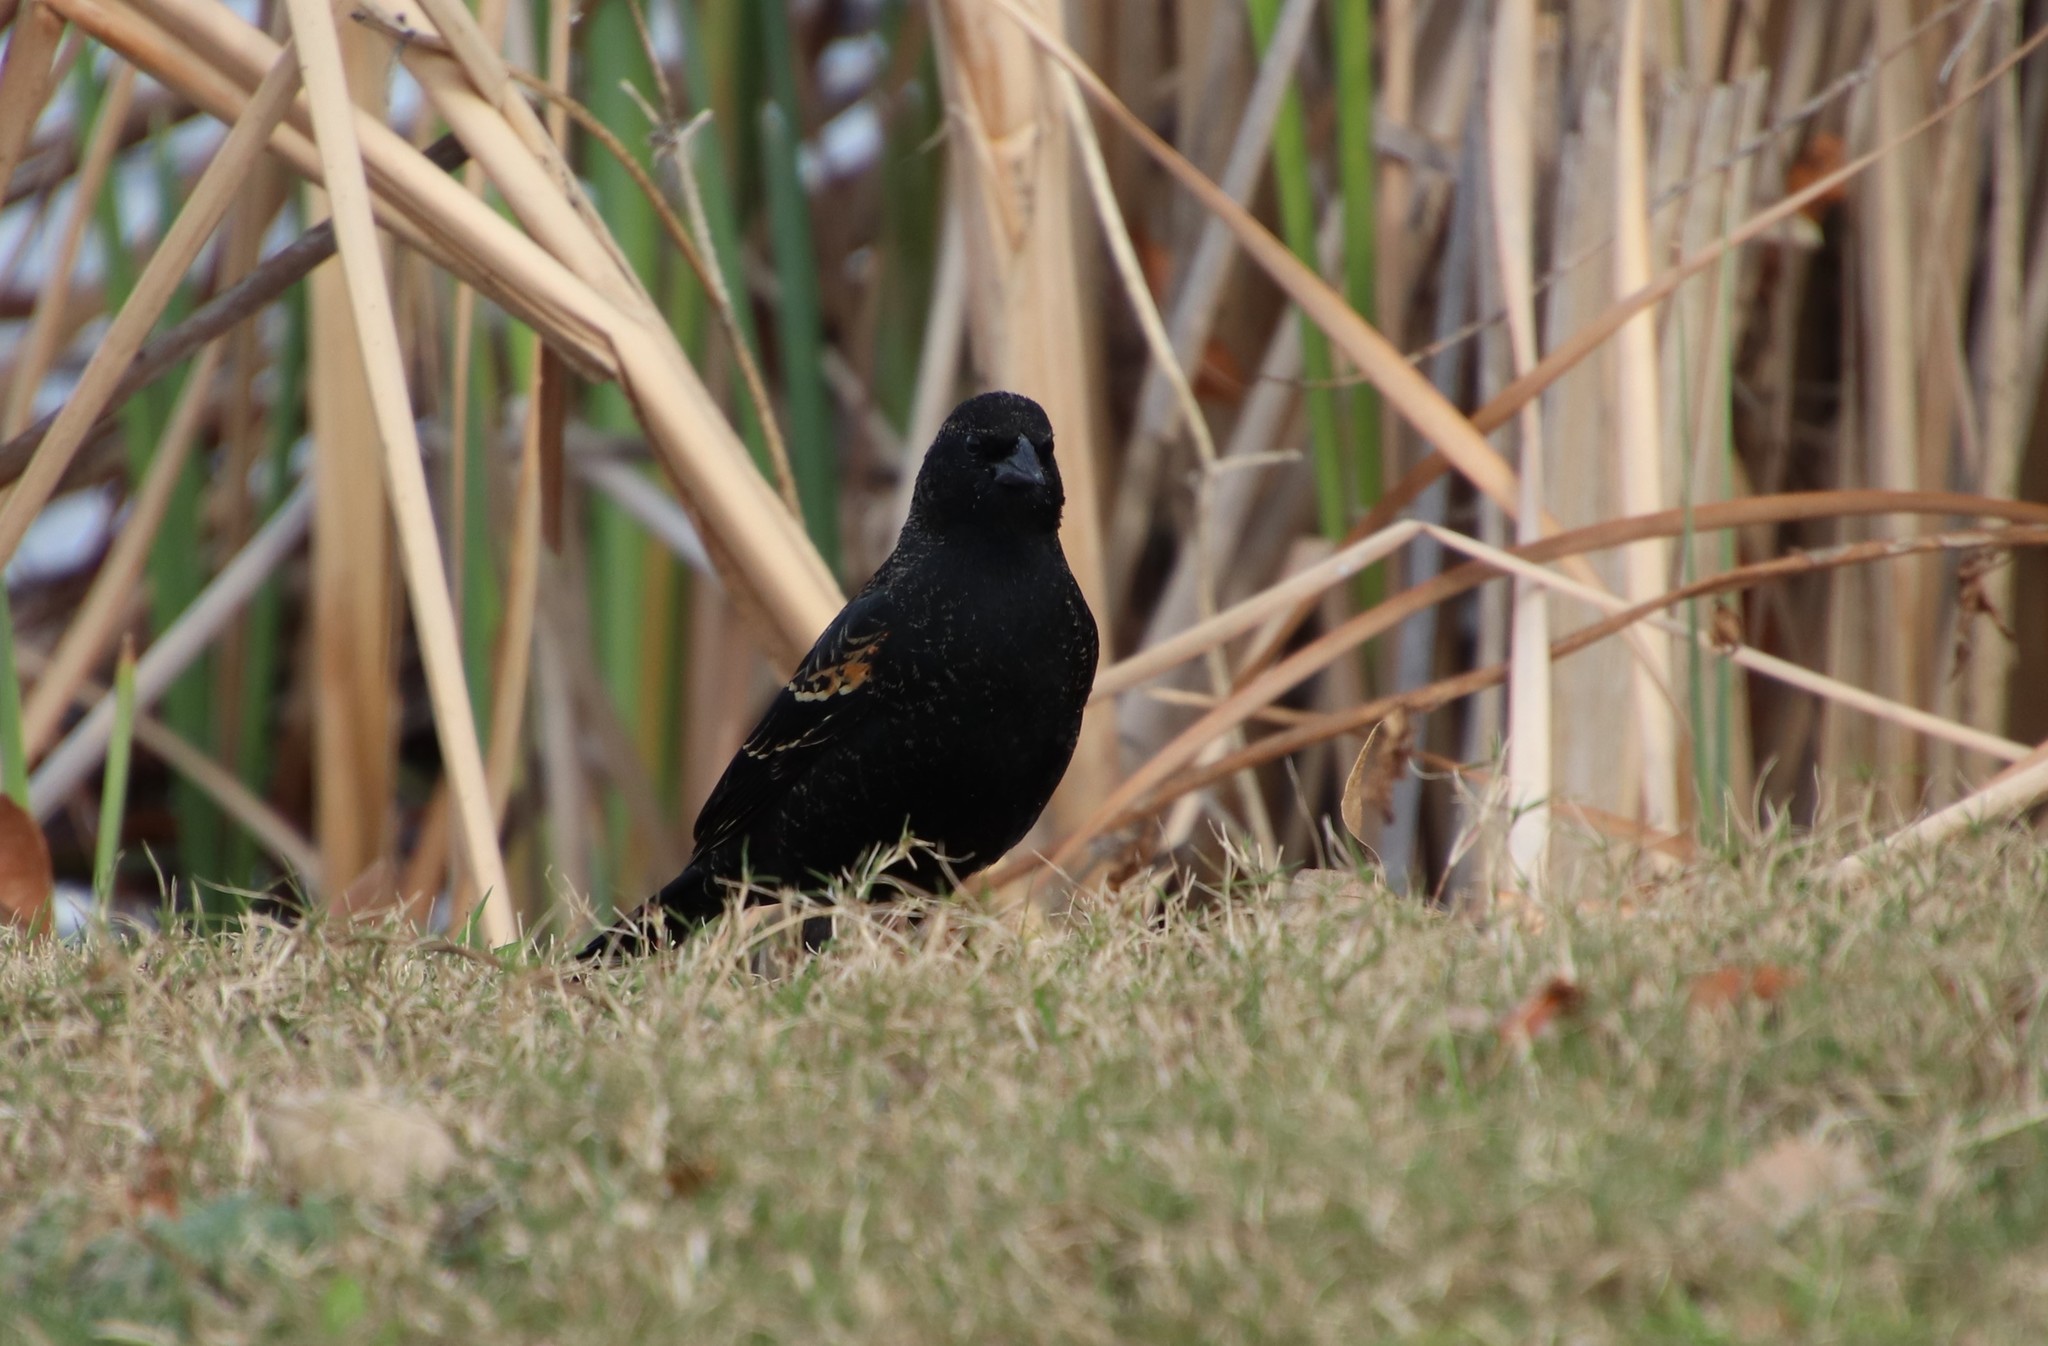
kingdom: Animalia
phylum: Chordata
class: Aves
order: Passeriformes
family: Icteridae
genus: Agelaius
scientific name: Agelaius phoeniceus
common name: Red-winged blackbird
